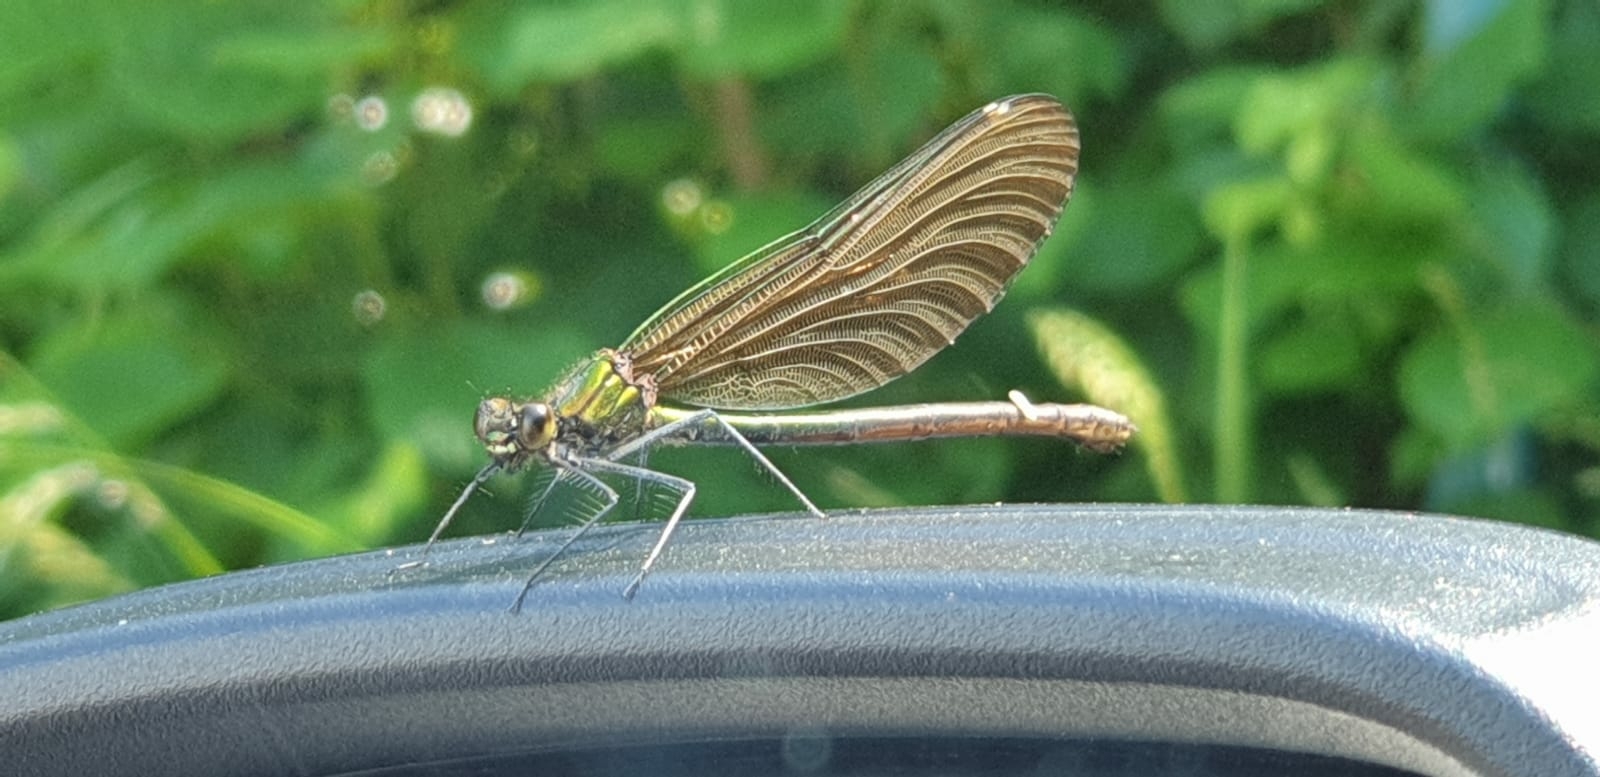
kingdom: Animalia
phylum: Arthropoda
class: Insecta
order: Odonata
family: Calopterygidae
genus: Calopteryx
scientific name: Calopteryx virgo
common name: Beautiful demoiselle
